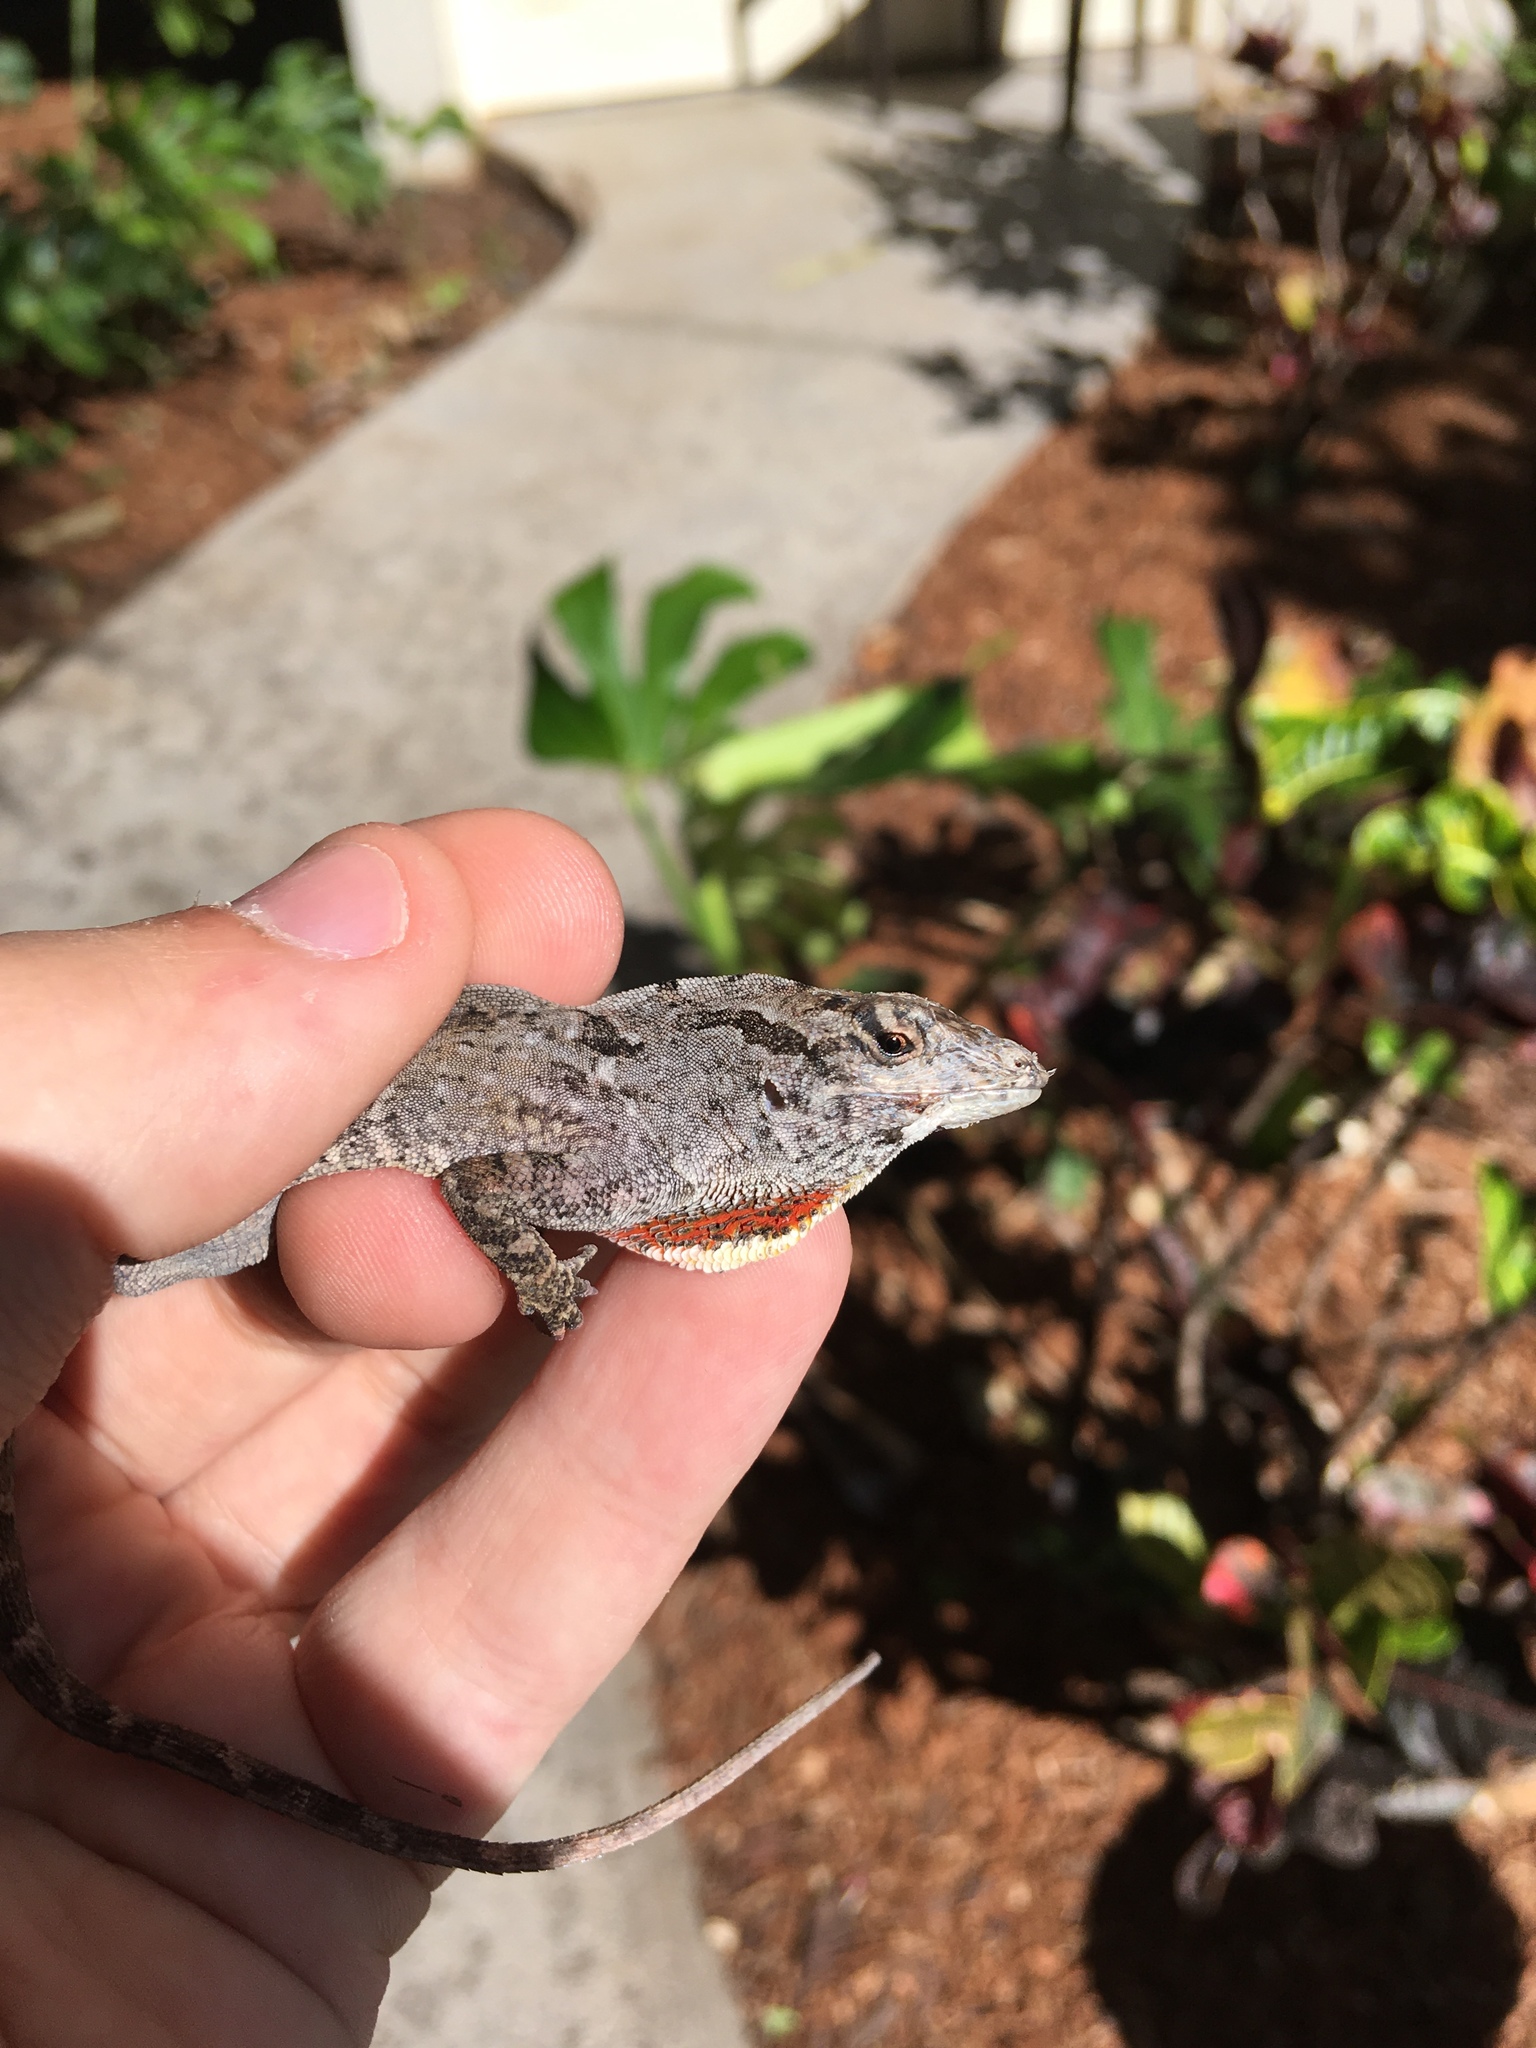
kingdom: Animalia
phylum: Chordata
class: Squamata
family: Dactyloidae
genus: Anolis
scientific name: Anolis sagrei
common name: Brown anole
